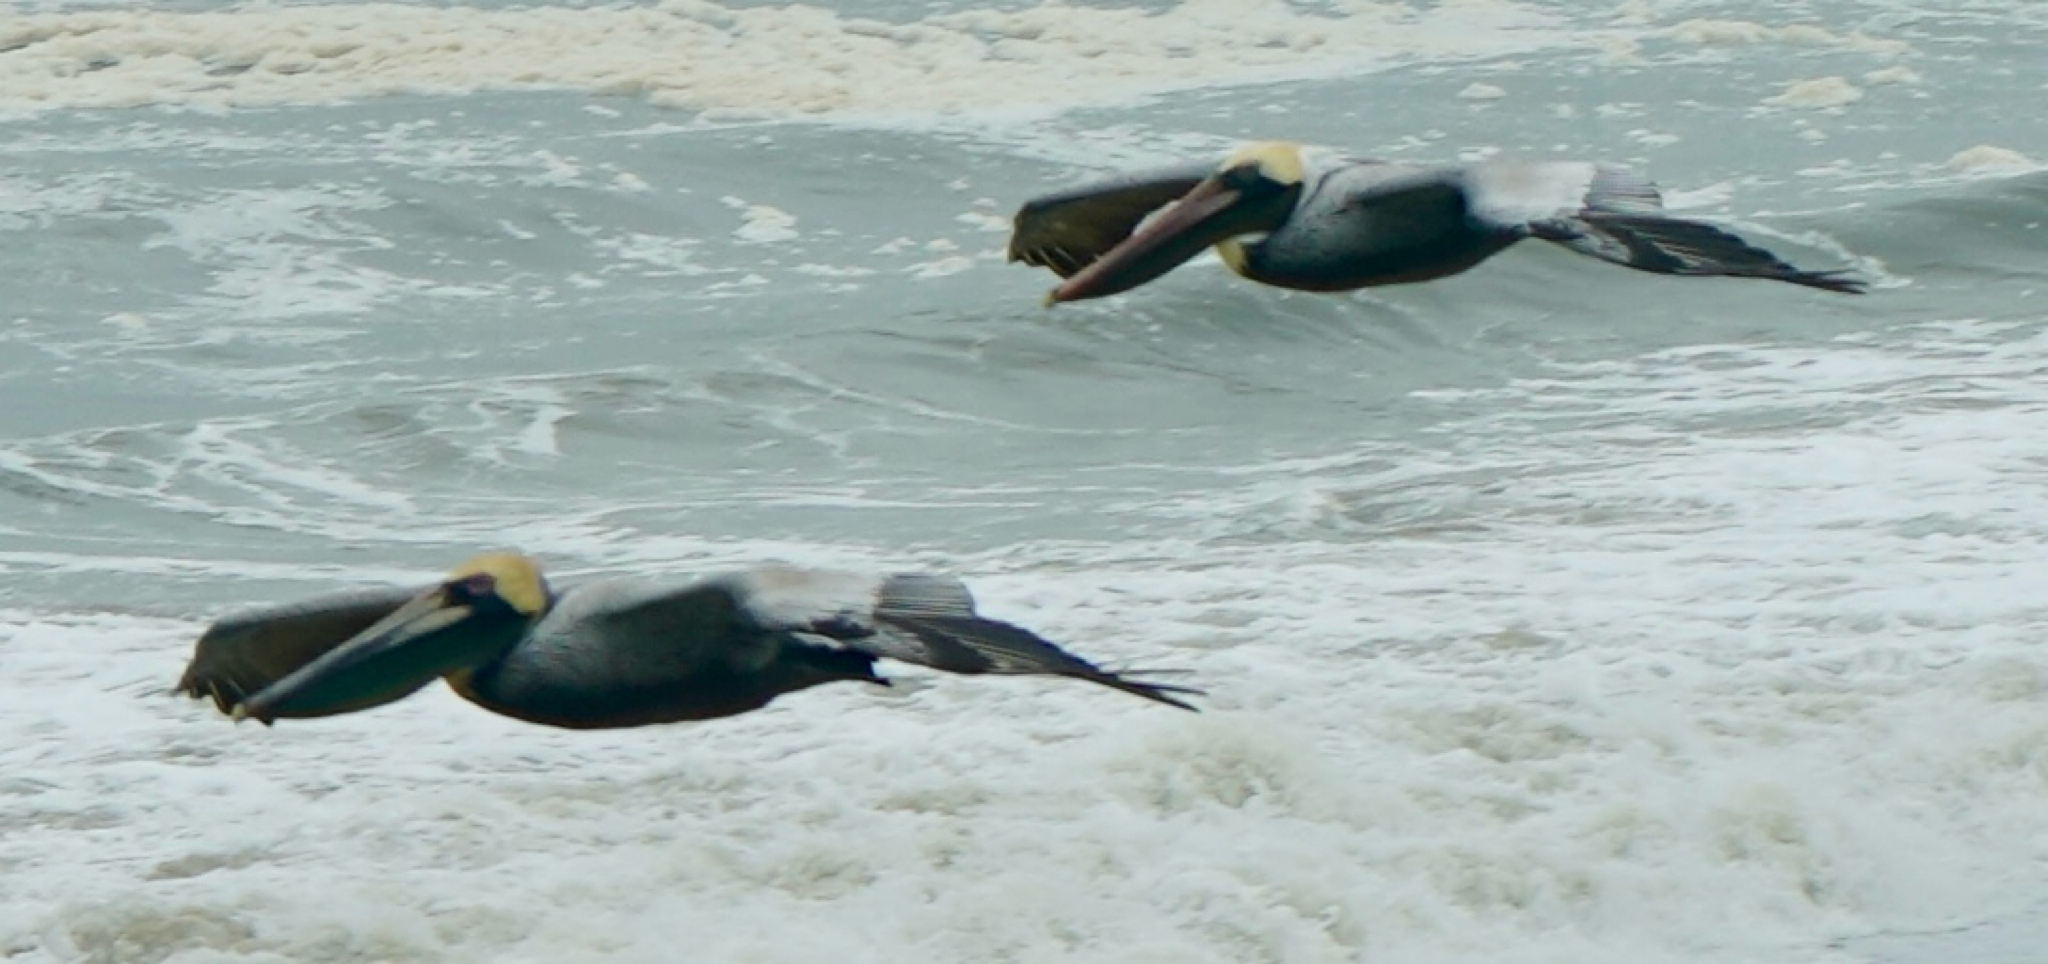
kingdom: Animalia
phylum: Chordata
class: Aves
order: Pelecaniformes
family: Pelecanidae
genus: Pelecanus
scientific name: Pelecanus occidentalis
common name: Brown pelican
